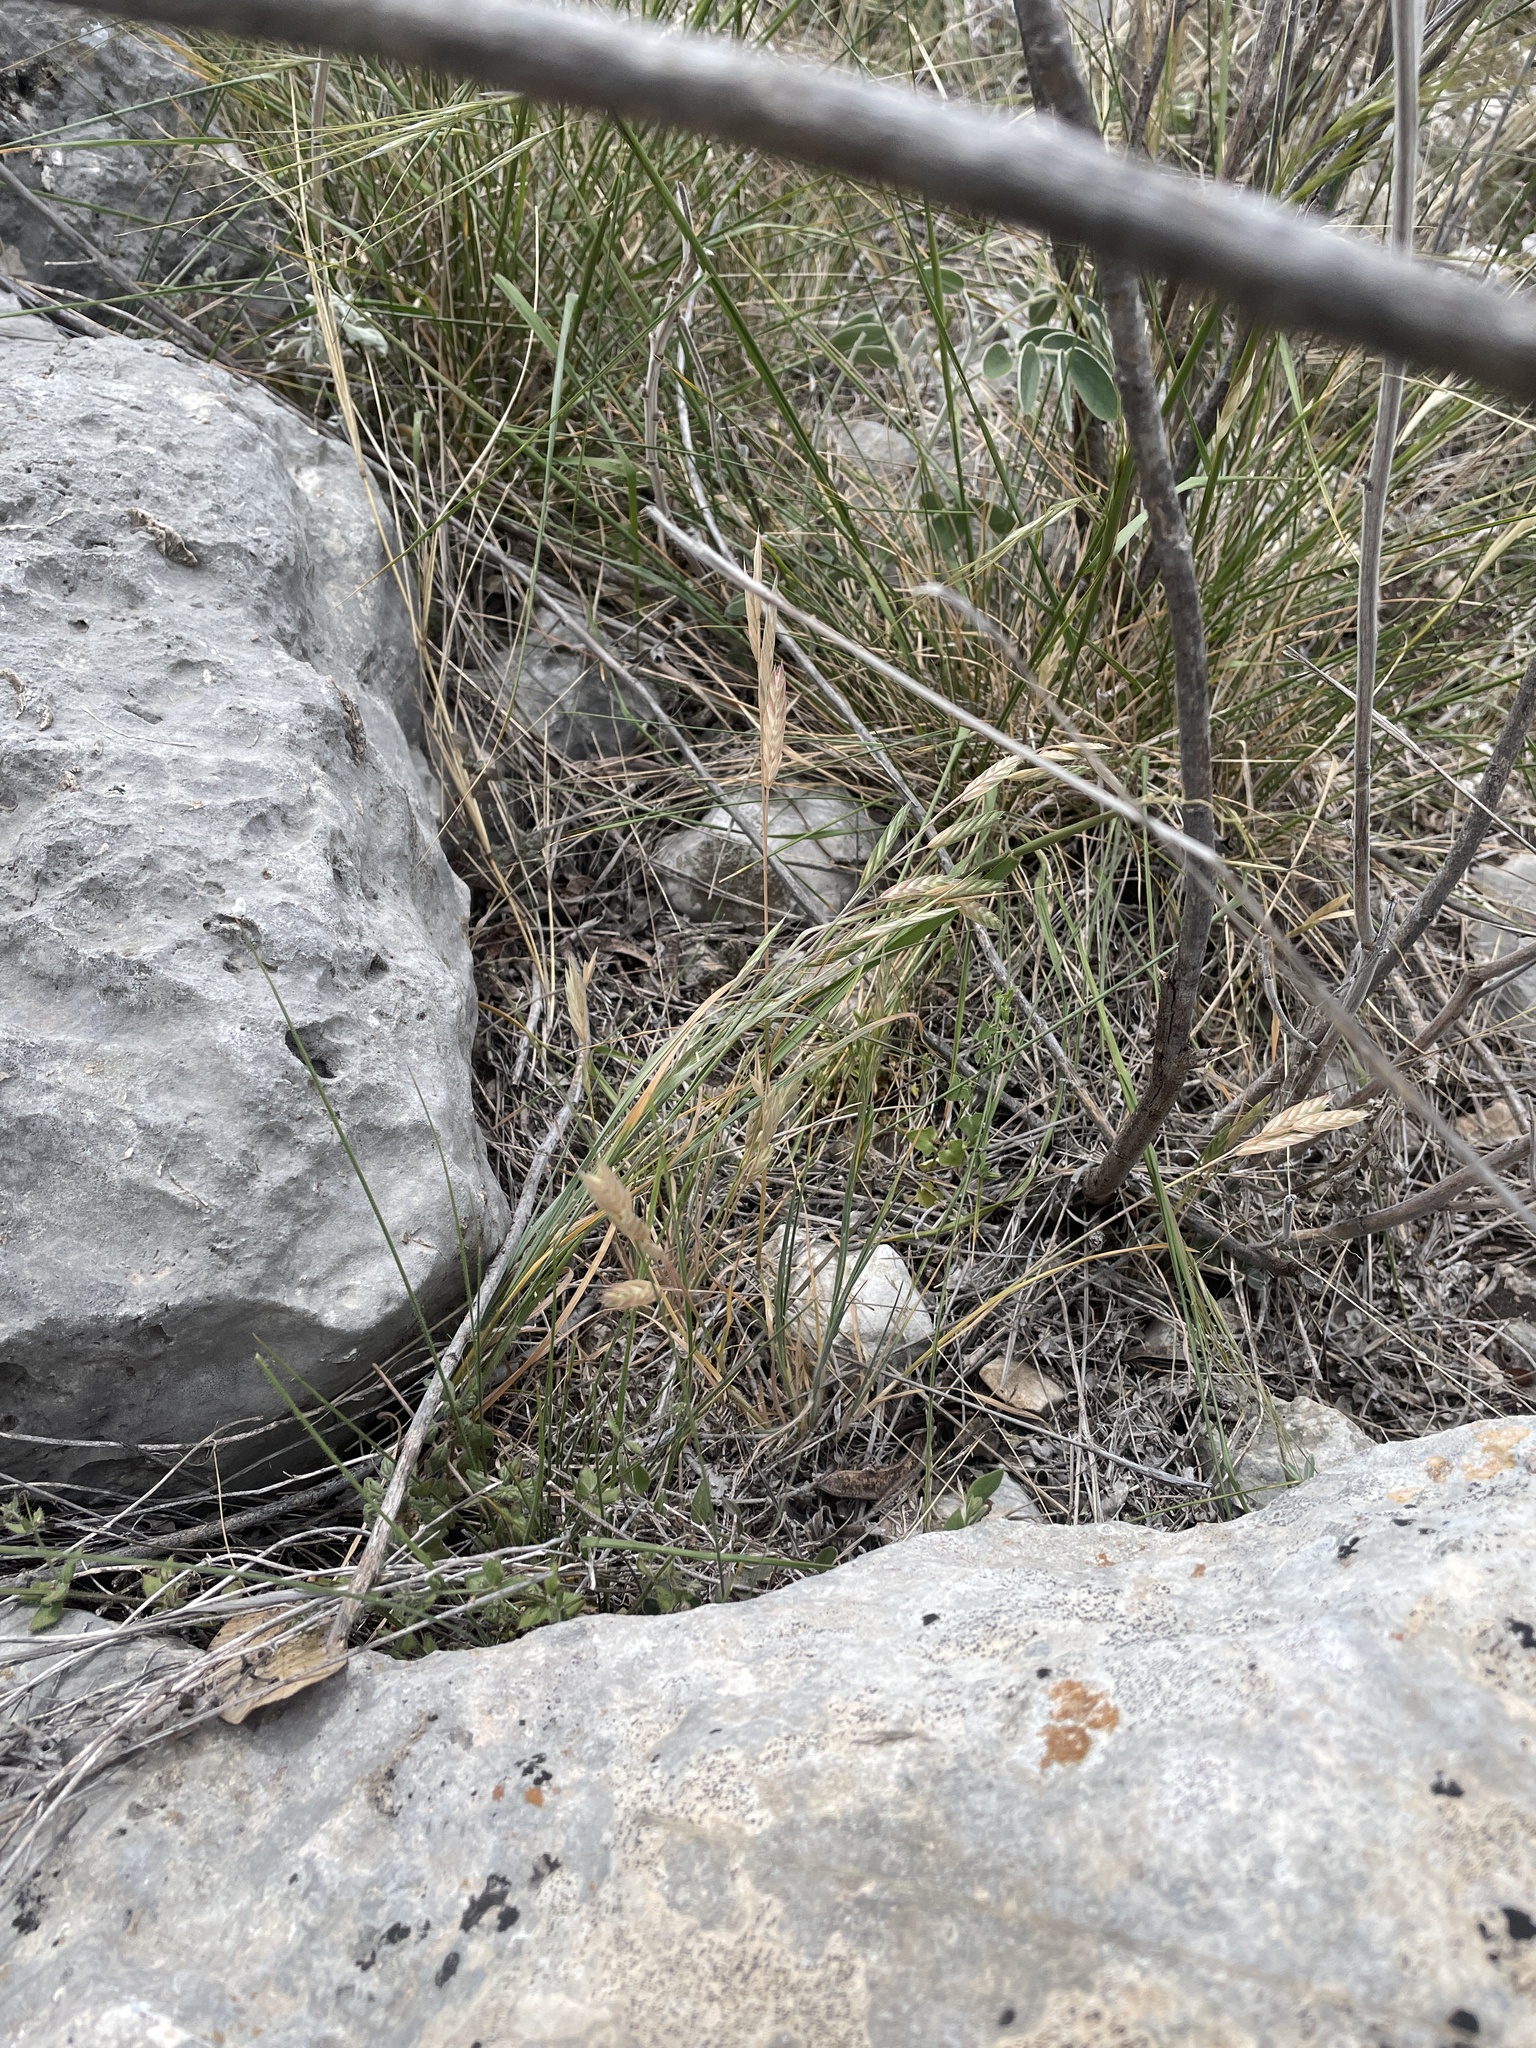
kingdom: Plantae
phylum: Tracheophyta
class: Liliopsida
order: Poales
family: Poaceae
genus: Bromus
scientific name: Bromus catharticus
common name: Rescuegrass
